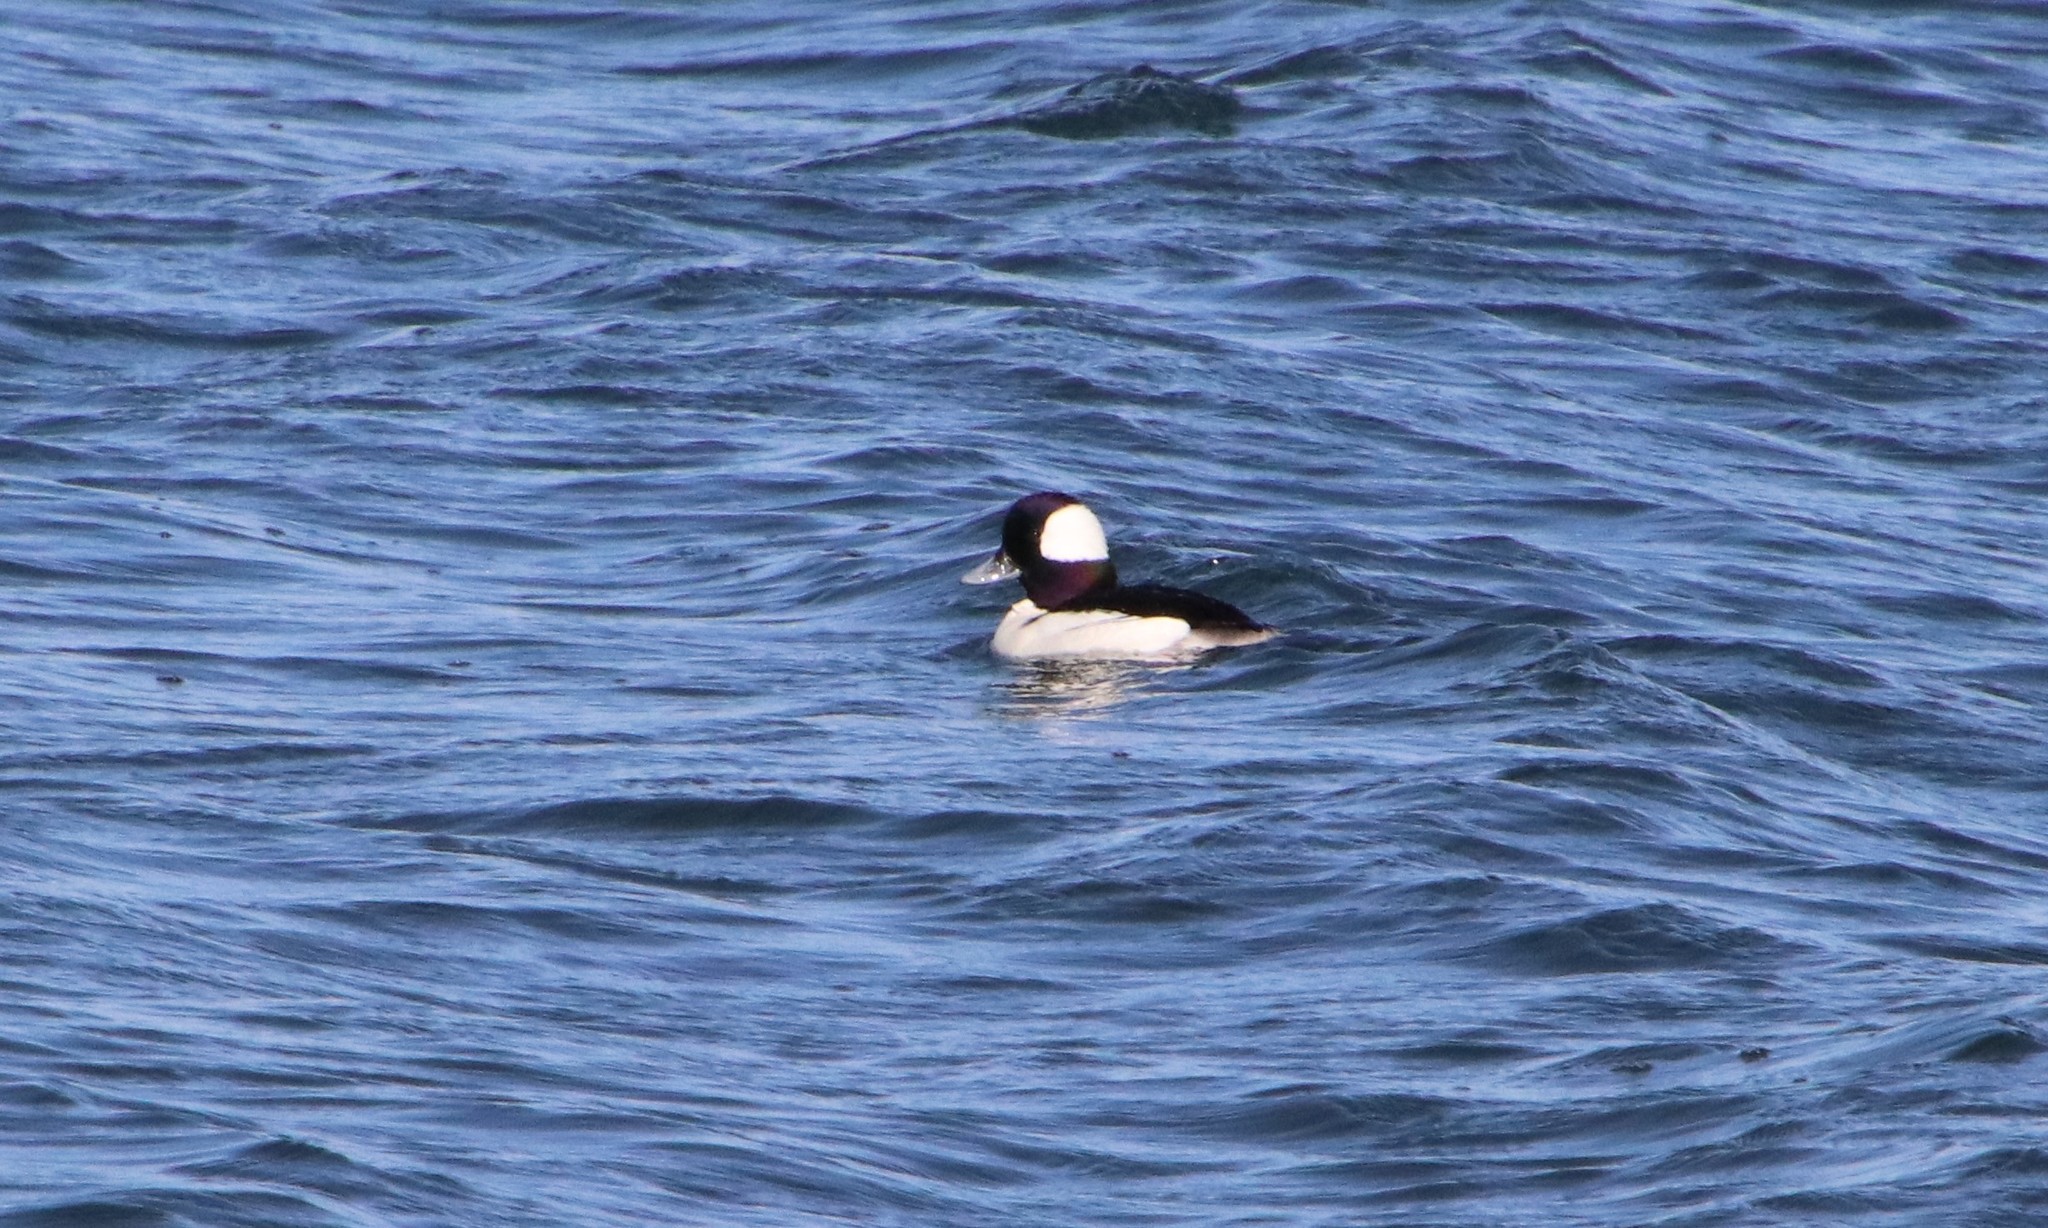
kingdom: Animalia
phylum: Chordata
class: Aves
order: Anseriformes
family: Anatidae
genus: Bucephala
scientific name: Bucephala albeola
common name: Bufflehead
